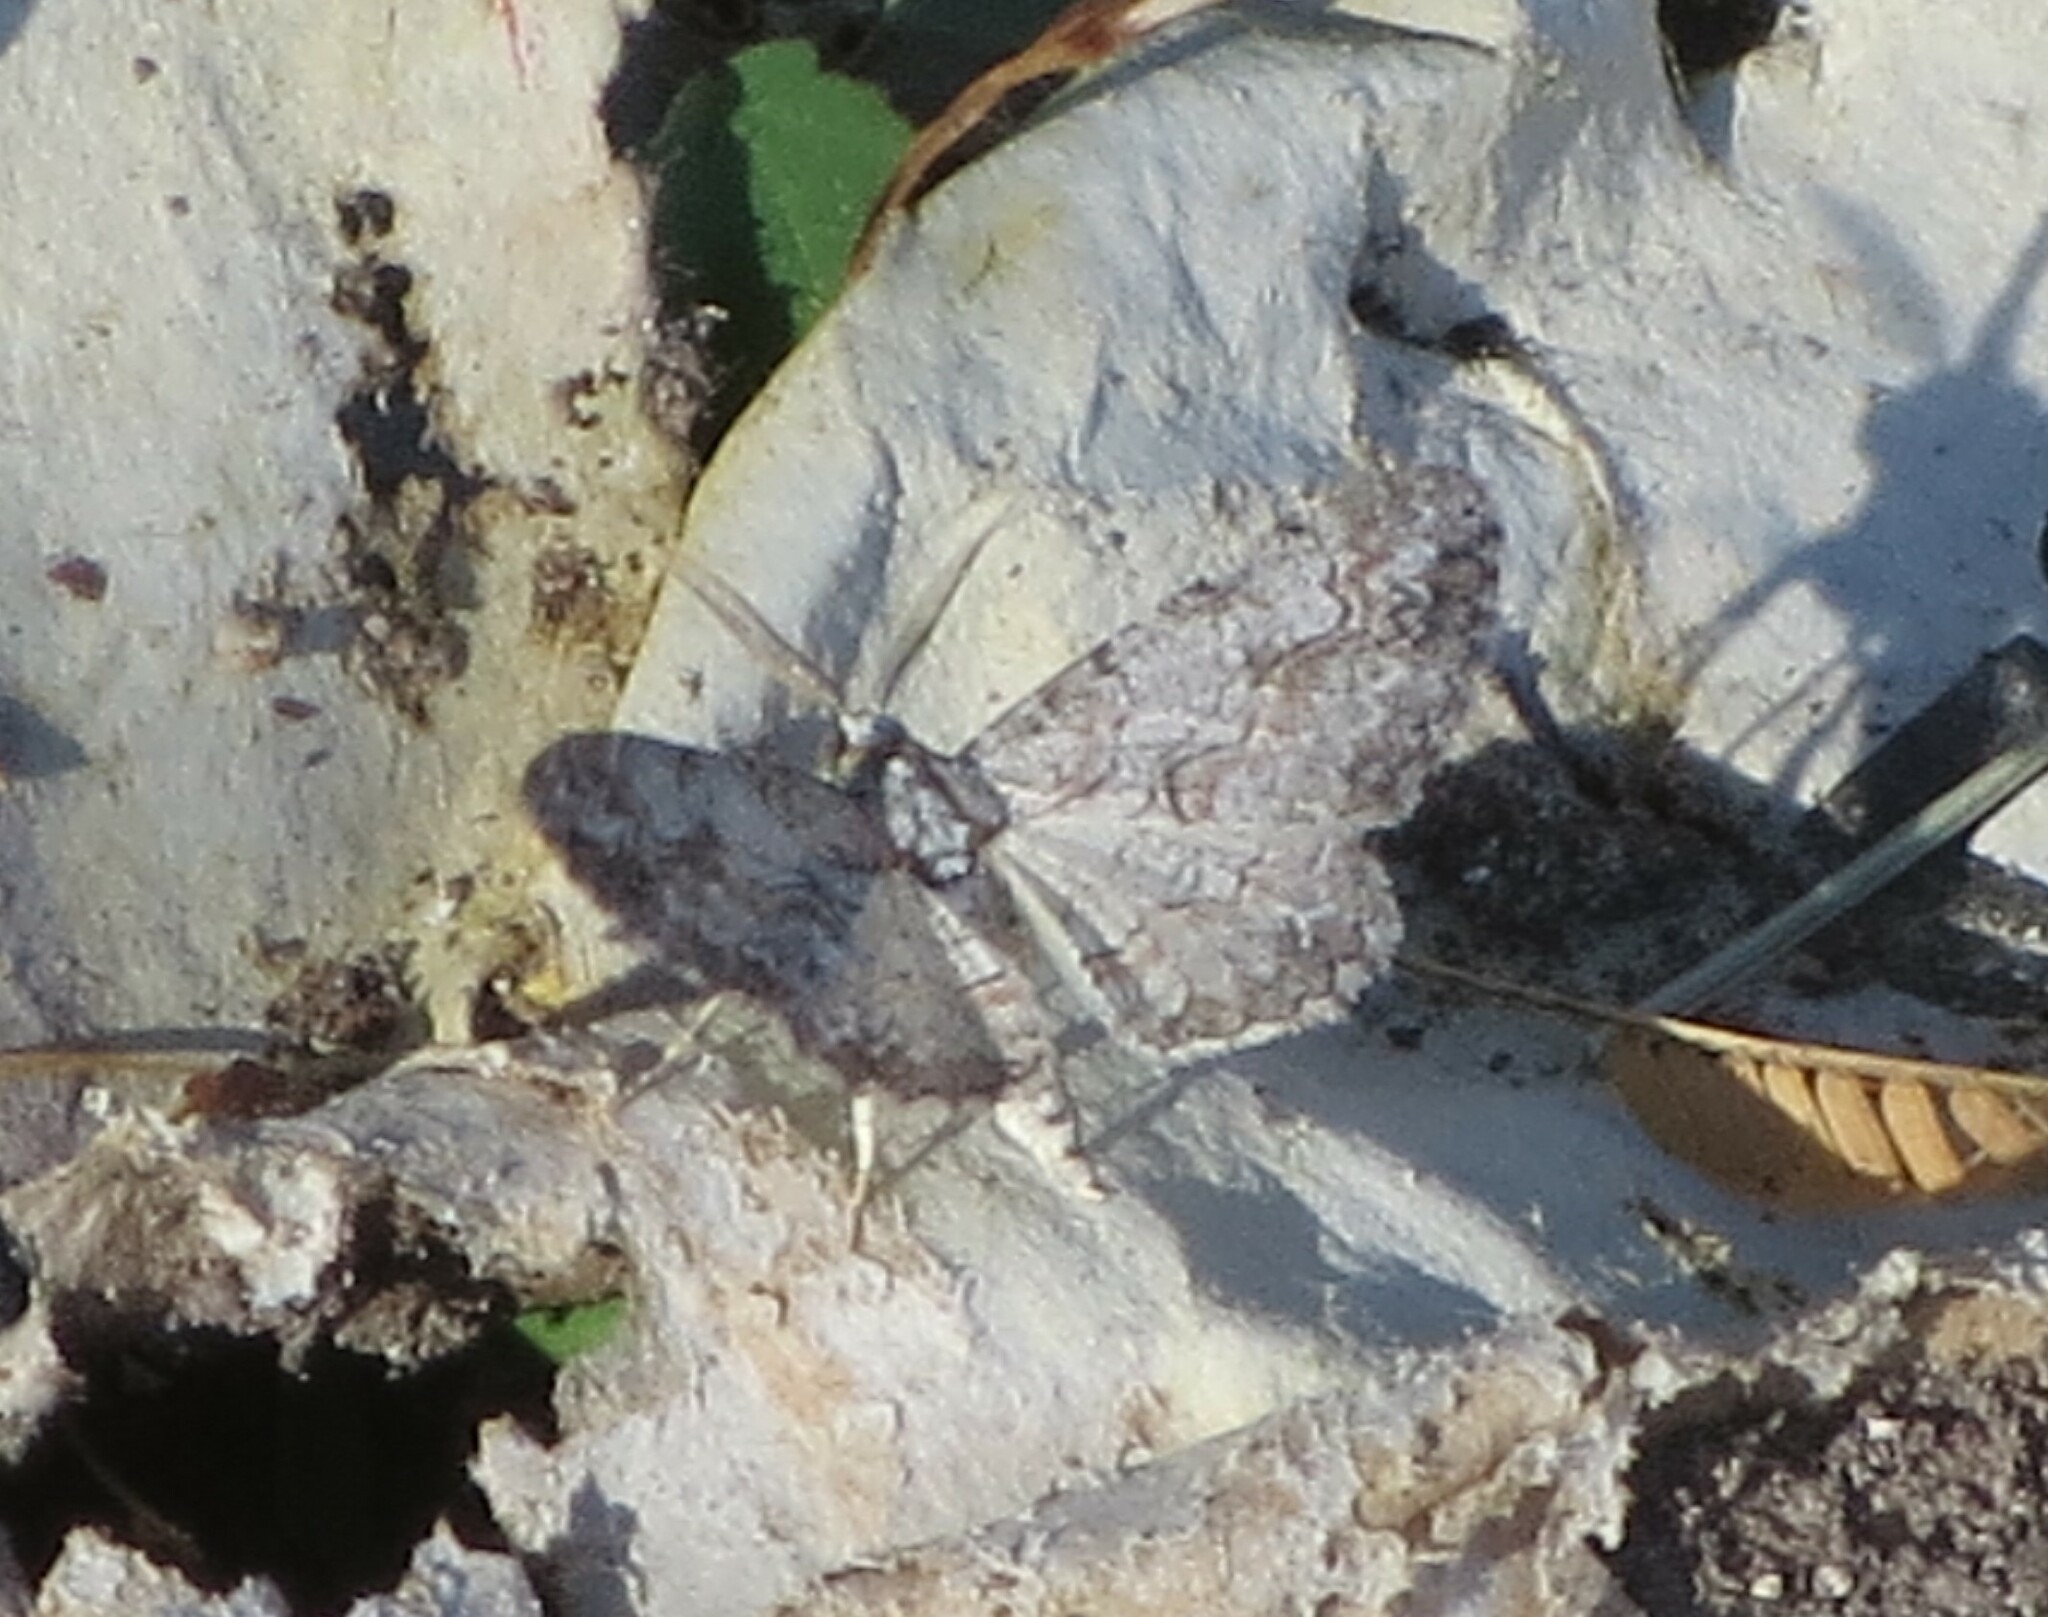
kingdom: Animalia
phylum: Arthropoda
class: Insecta
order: Lepidoptera
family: Geometridae
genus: Iridopsis
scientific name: Iridopsis defectaria
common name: Brown-shaded gray
